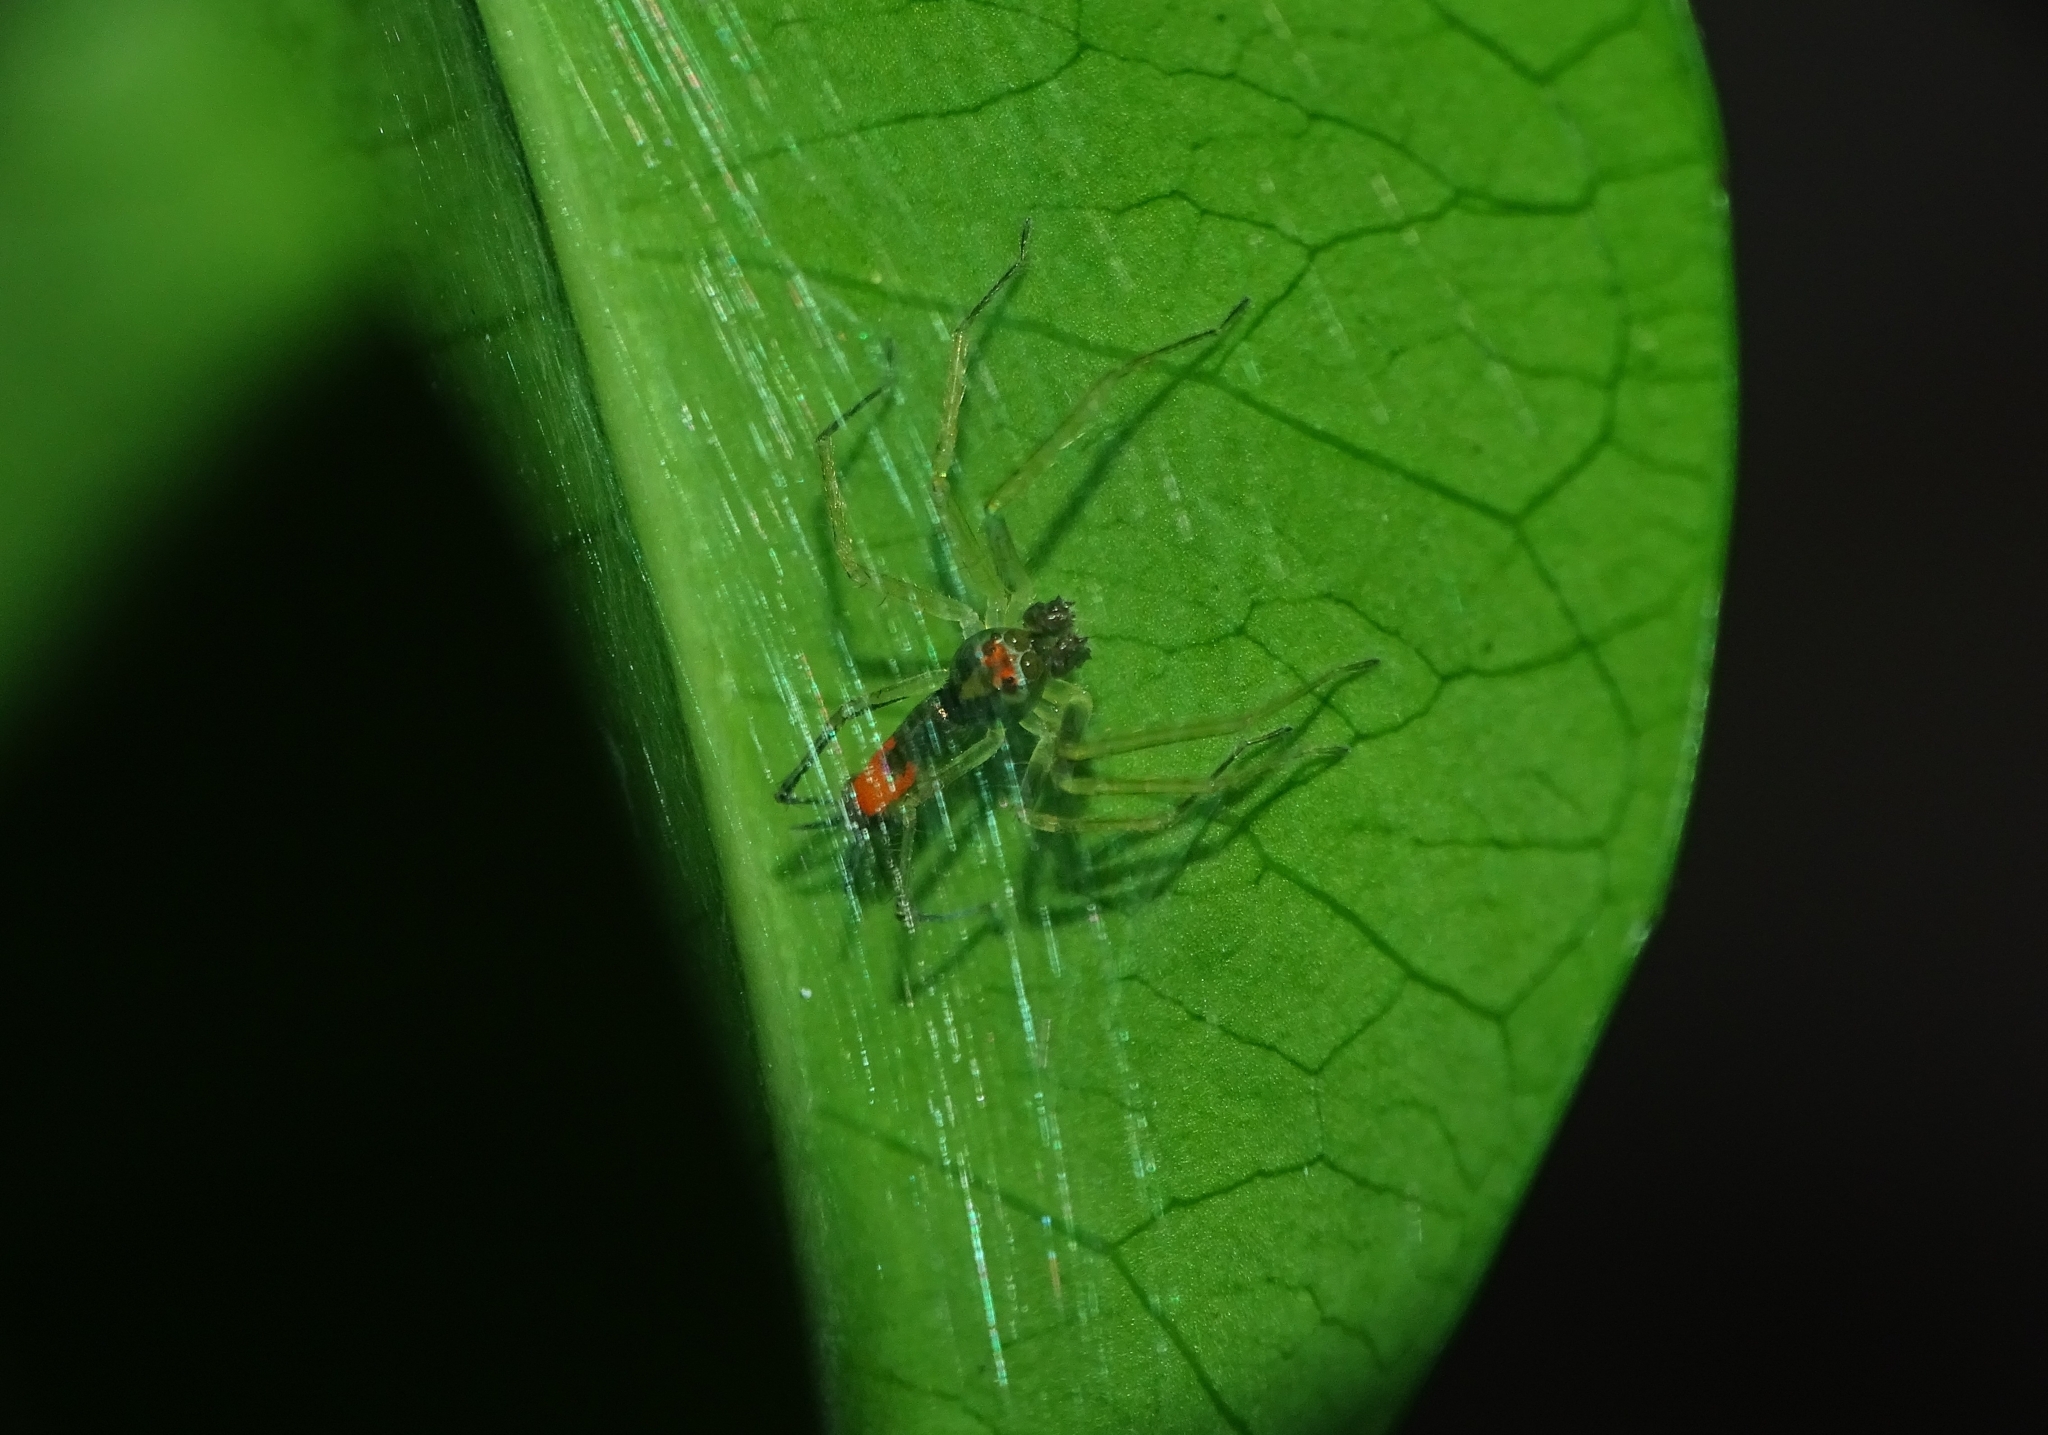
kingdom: Animalia
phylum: Arthropoda
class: Arachnida
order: Araneae
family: Salticidae
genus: Asemonea
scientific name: Asemonea tenuipes
